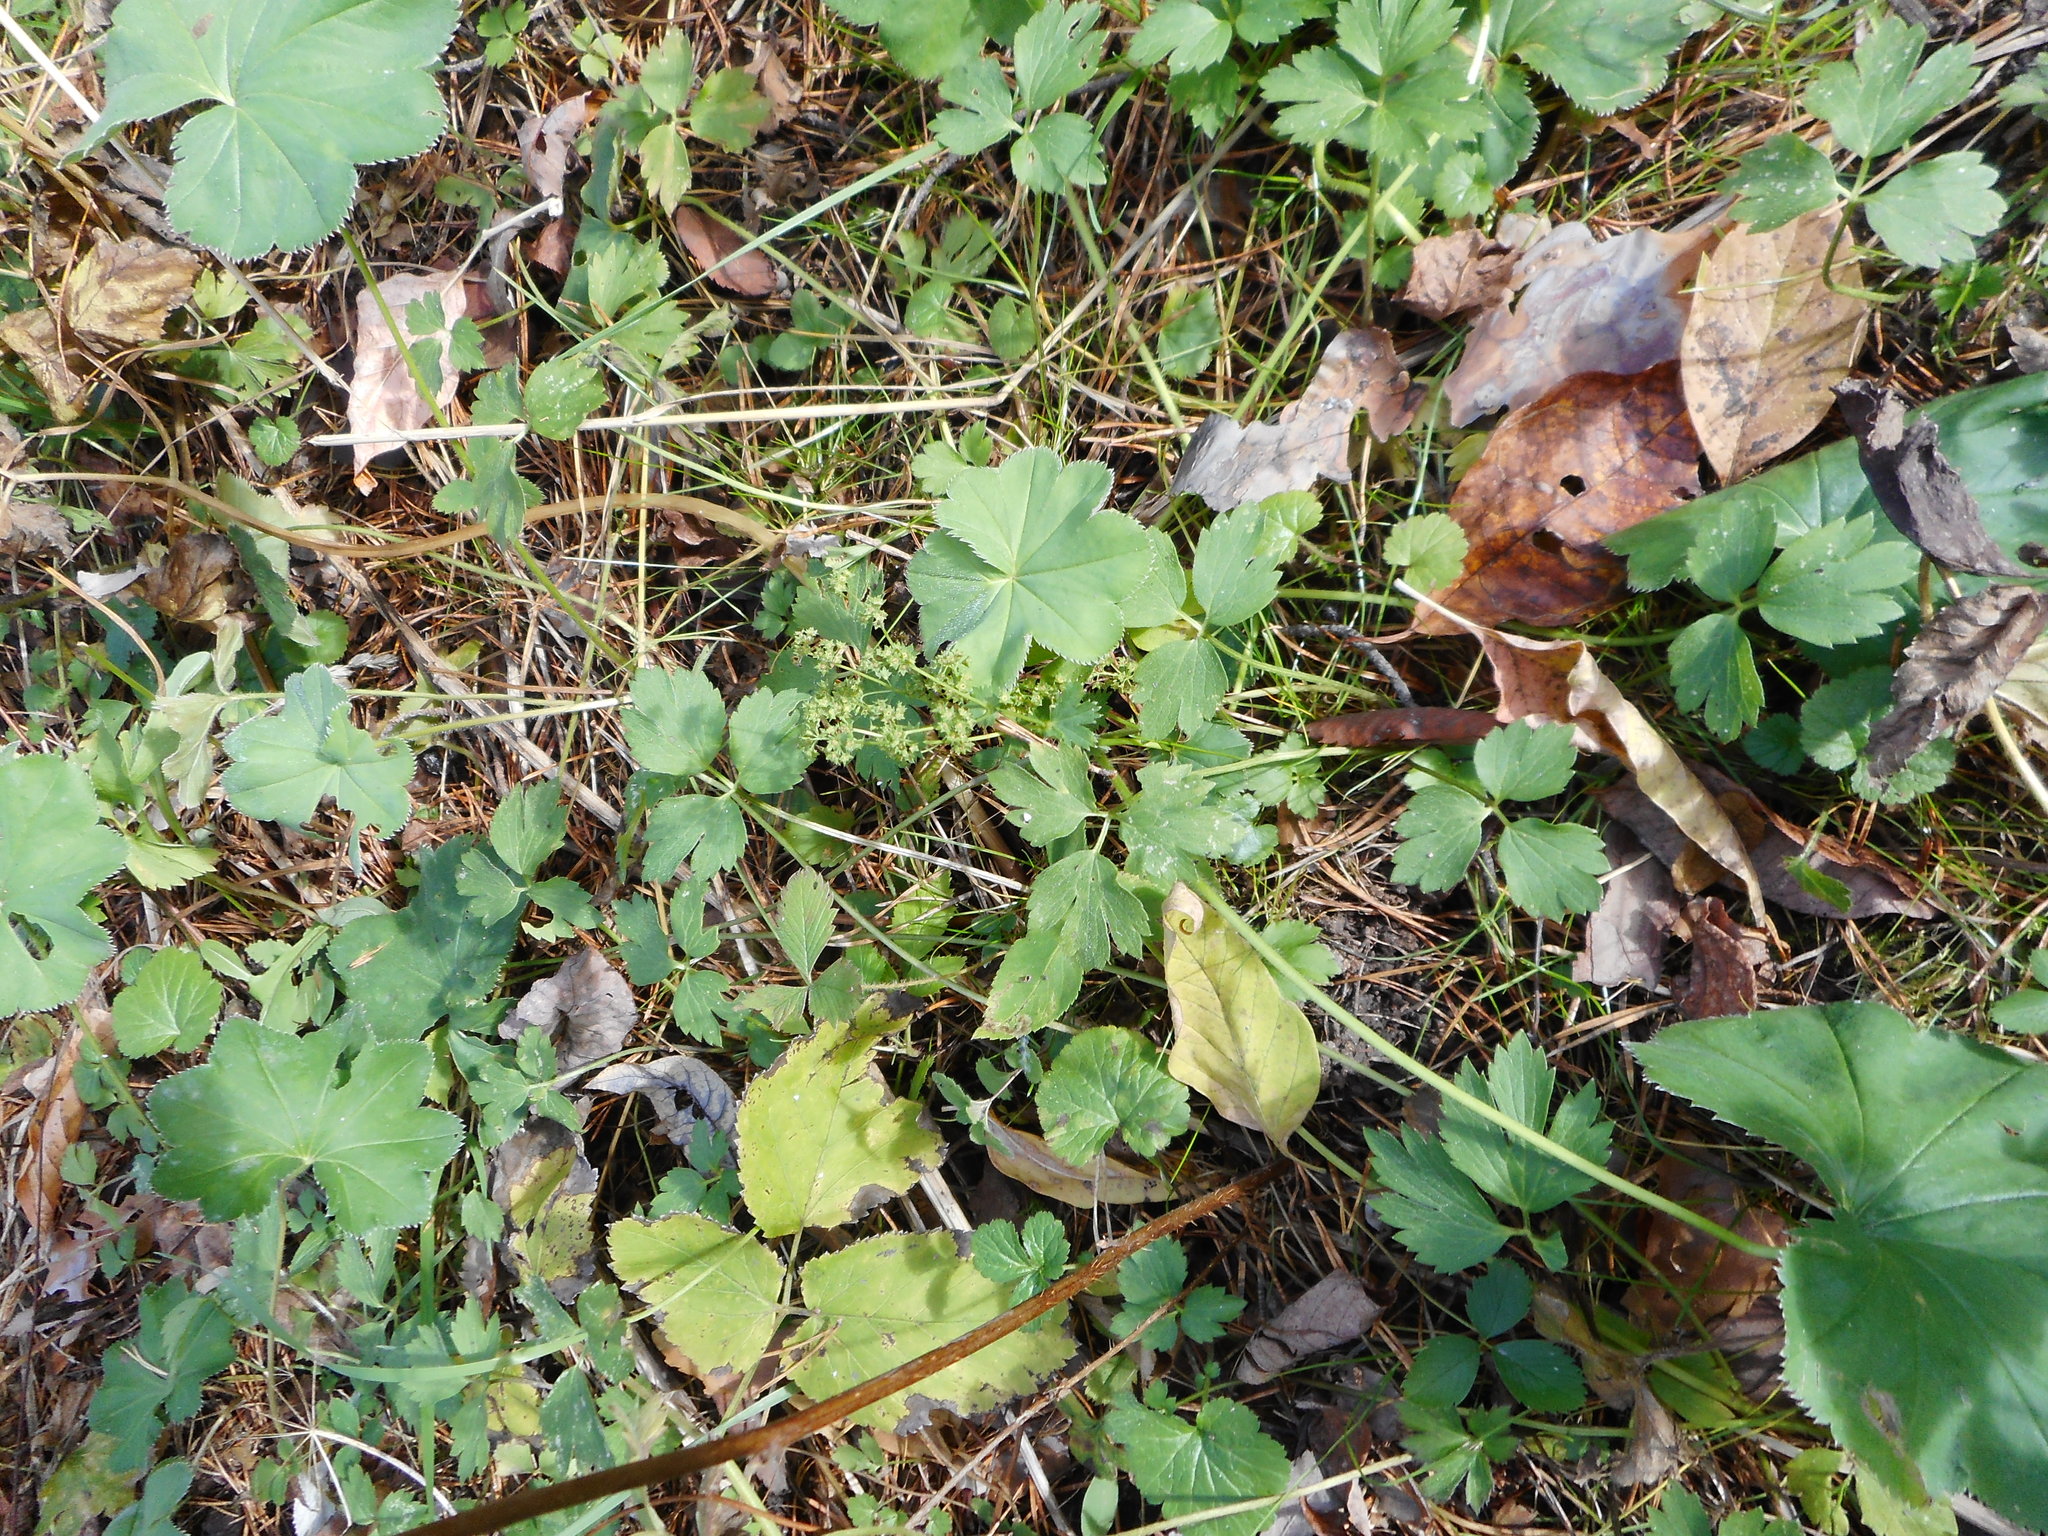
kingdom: Plantae
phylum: Tracheophyta
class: Magnoliopsida
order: Rosales
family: Rosaceae
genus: Alchemilla
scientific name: Alchemilla cymatophylla
